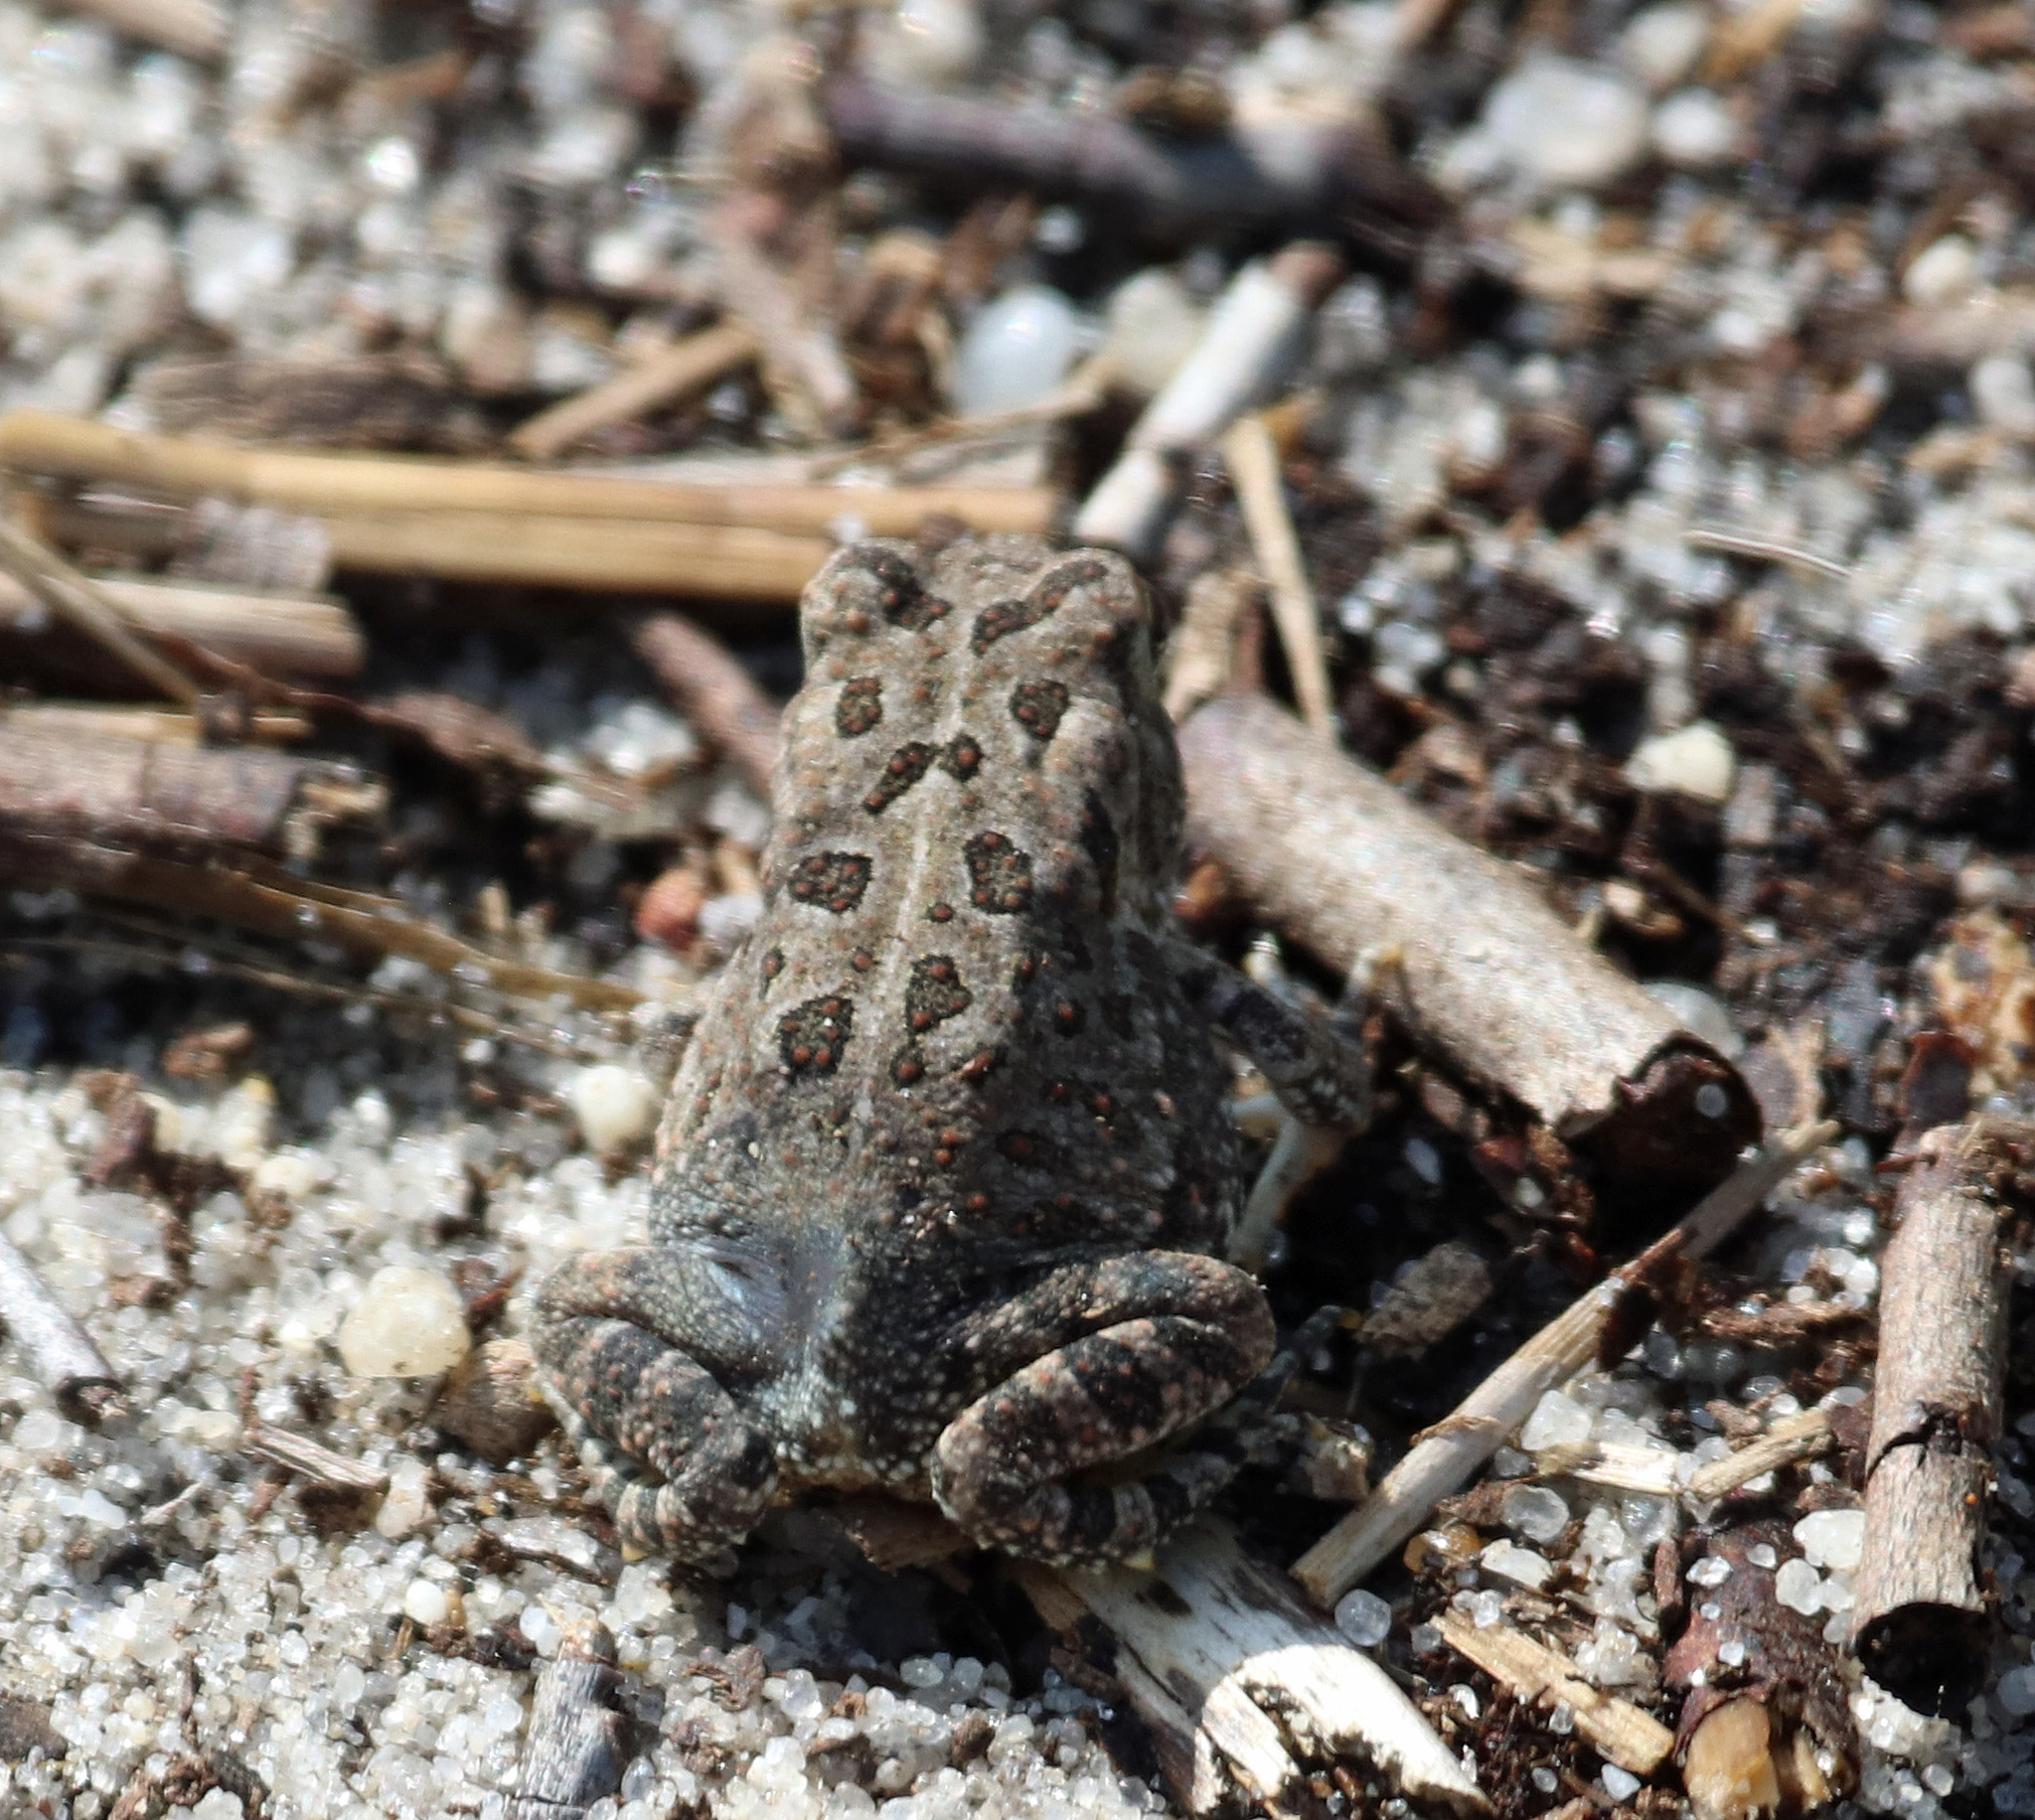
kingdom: Animalia
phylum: Chordata
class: Amphibia
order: Anura
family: Bufonidae
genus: Anaxyrus
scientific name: Anaxyrus fowleri
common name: Fowler's toad
